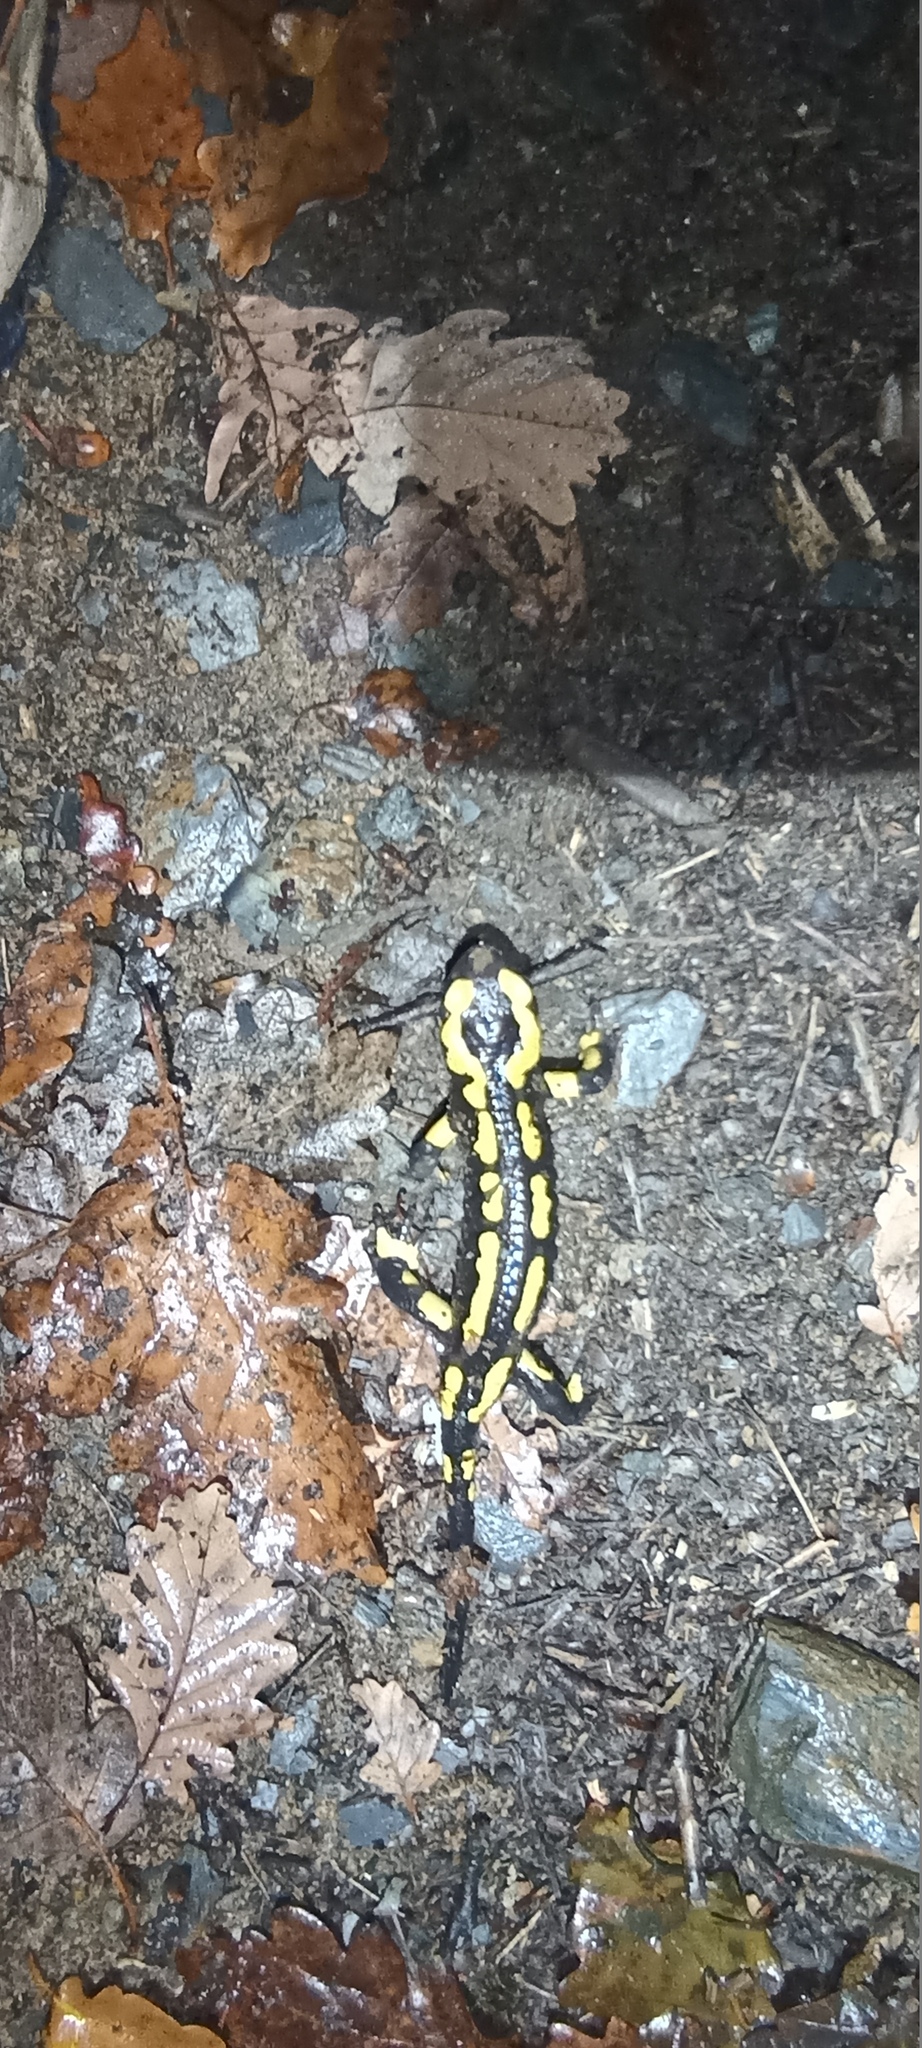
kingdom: Animalia
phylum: Chordata
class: Amphibia
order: Caudata
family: Salamandridae
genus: Salamandra
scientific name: Salamandra salamandra
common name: Fire salamander
